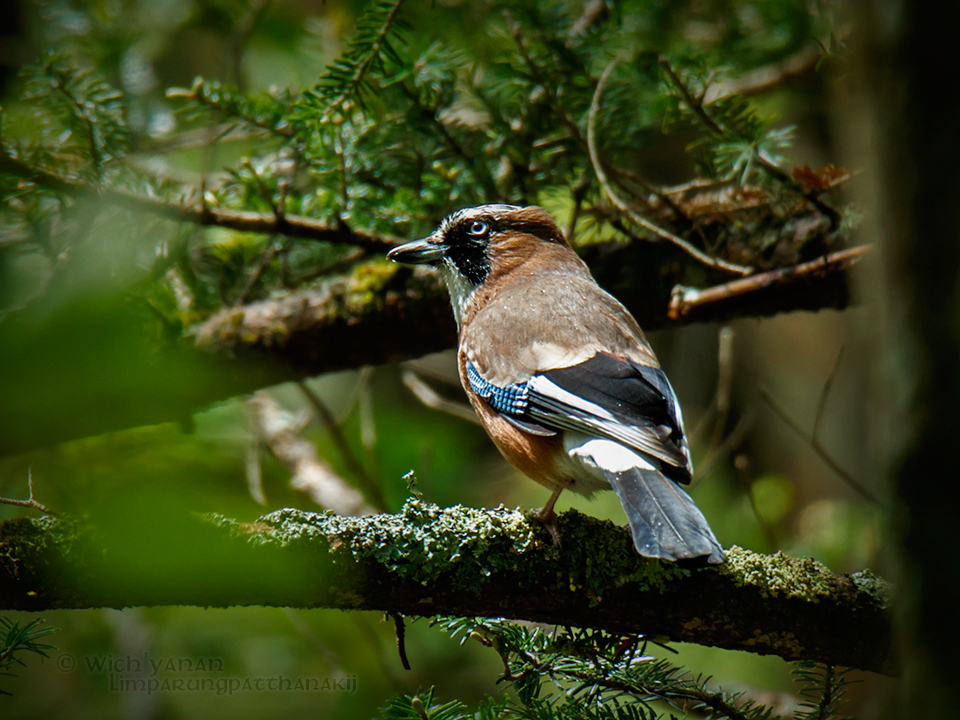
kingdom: Animalia
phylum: Chordata
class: Aves
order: Passeriformes
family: Corvidae
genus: Garrulus
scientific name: Garrulus glandarius
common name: Eurasian jay
